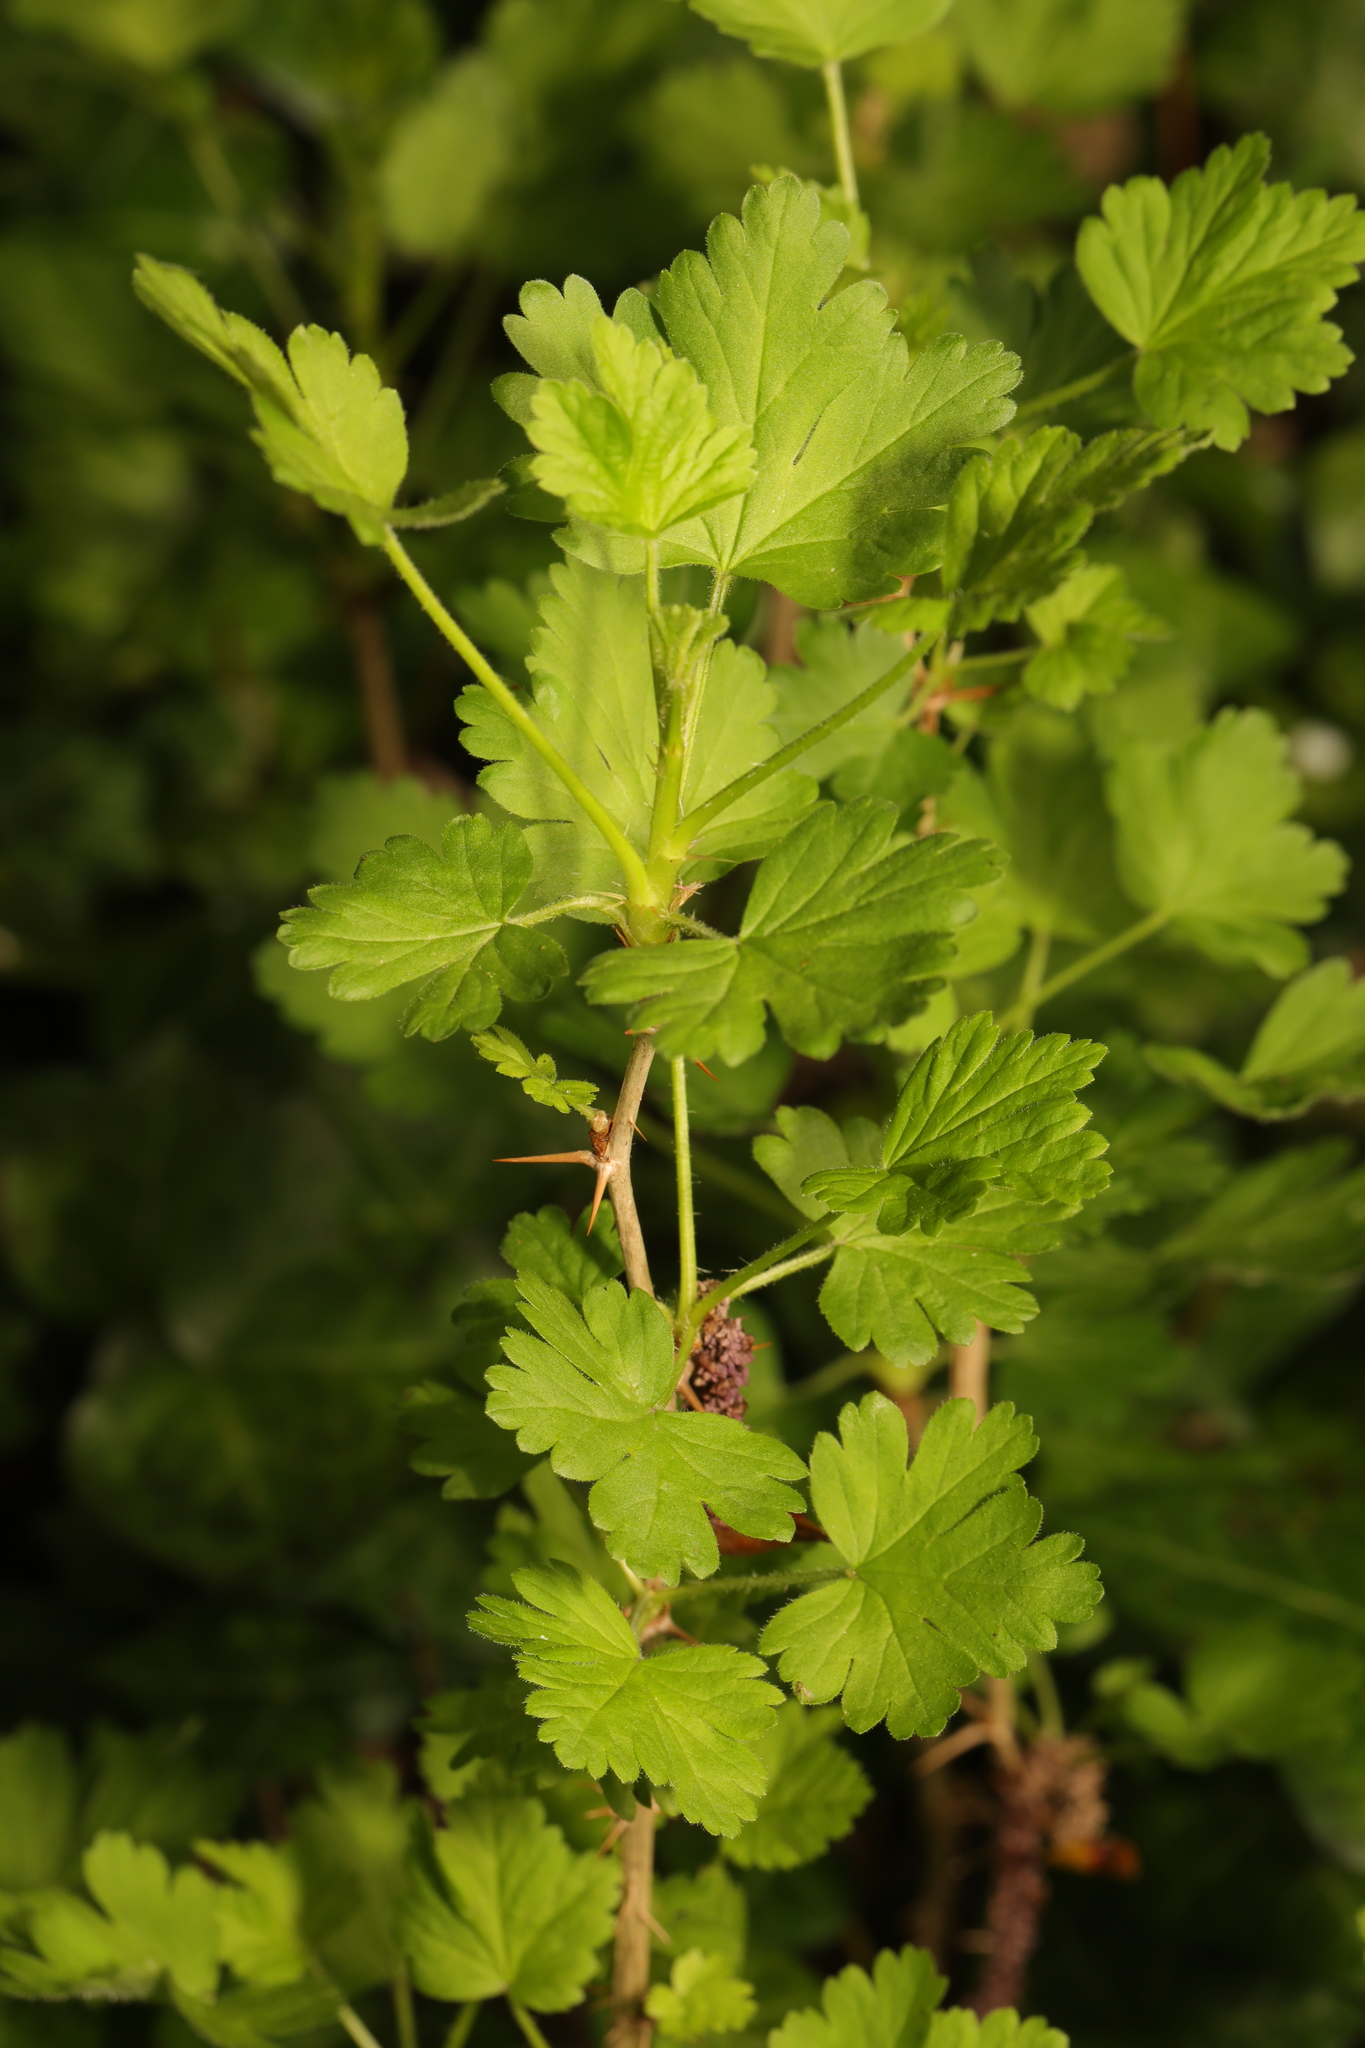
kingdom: Plantae
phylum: Tracheophyta
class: Magnoliopsida
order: Saxifragales
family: Grossulariaceae
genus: Ribes
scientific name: Ribes uva-crispa
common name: Gooseberry
